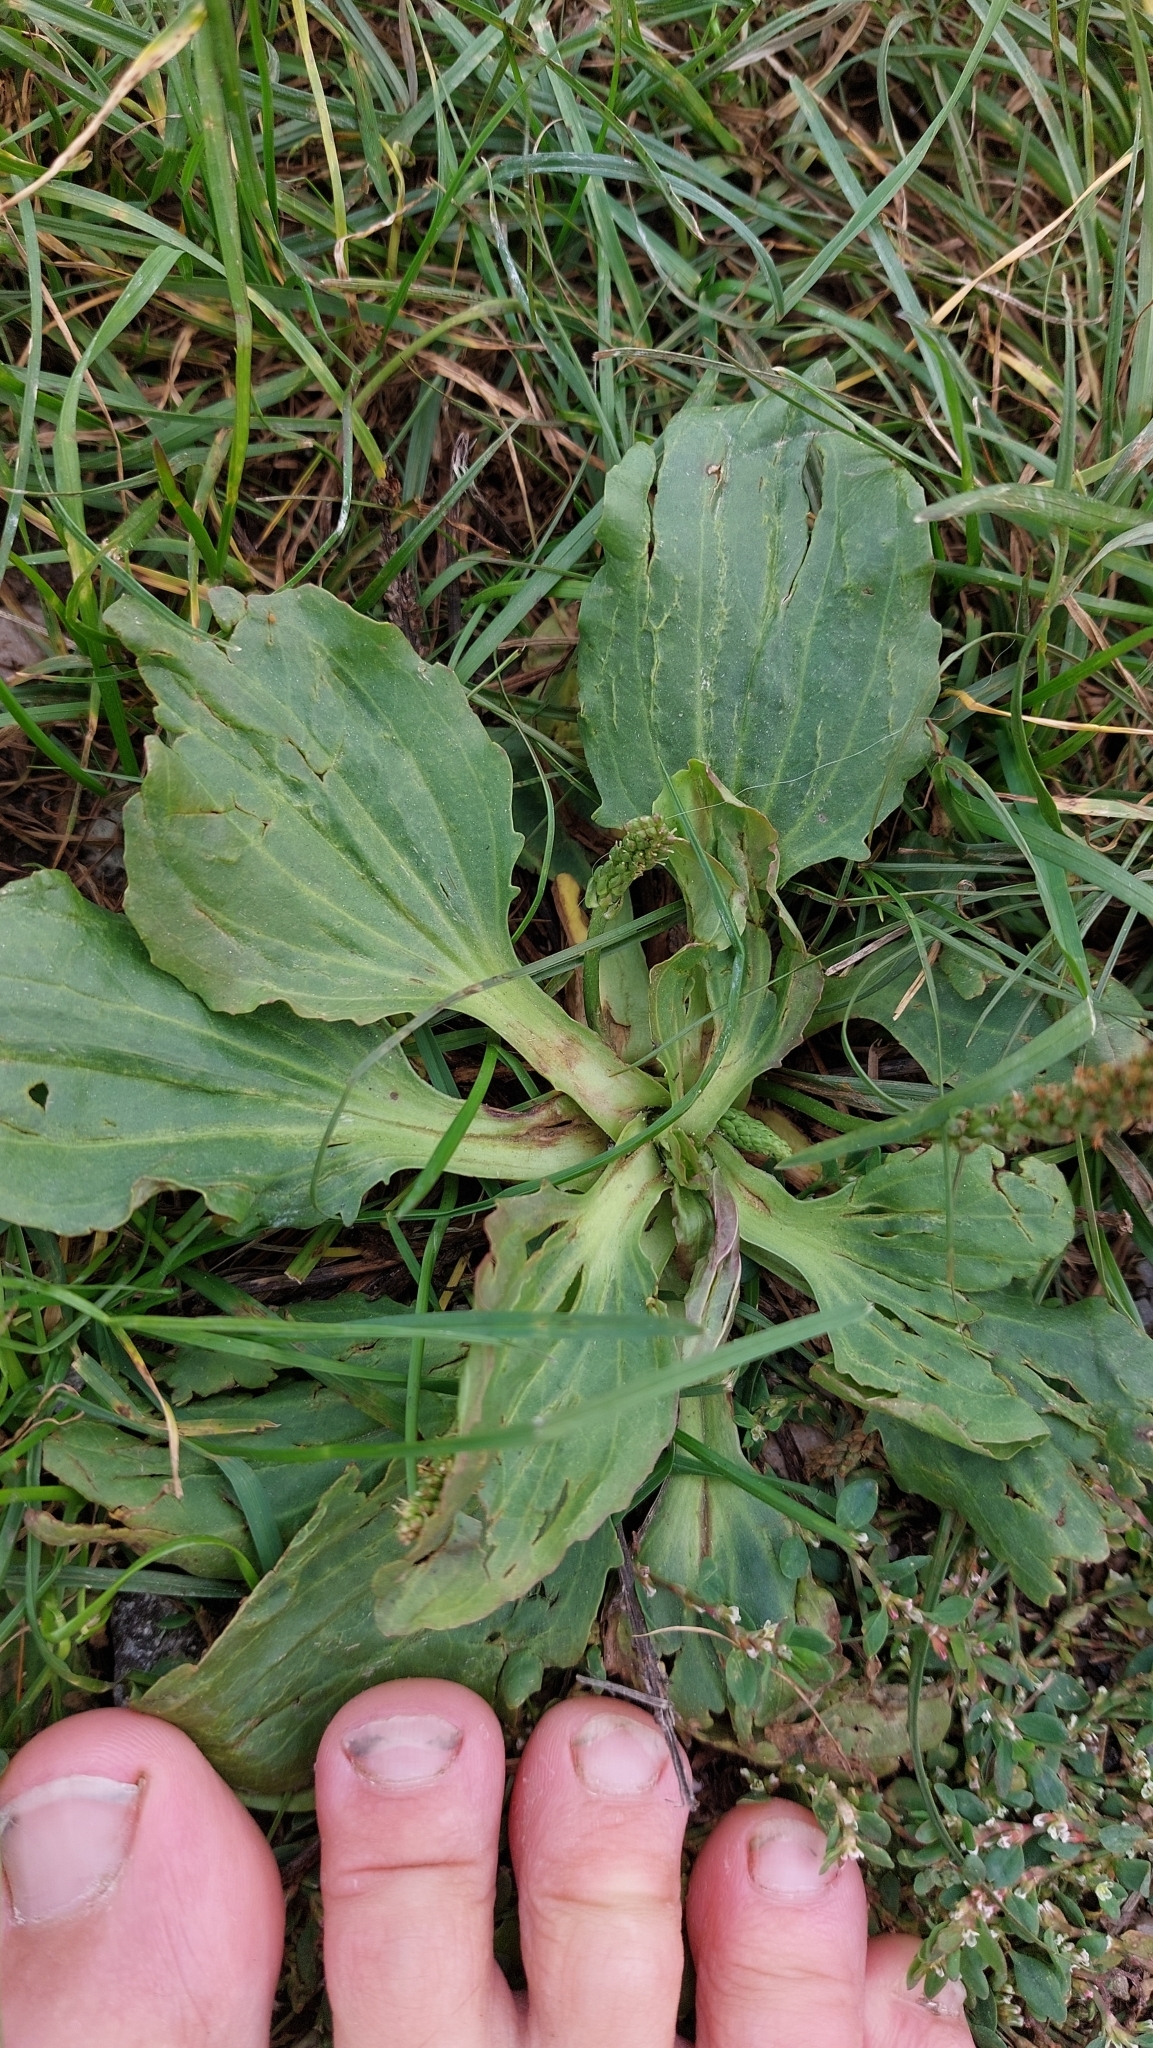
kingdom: Plantae
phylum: Tracheophyta
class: Magnoliopsida
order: Lamiales
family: Plantaginaceae
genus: Plantago
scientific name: Plantago major
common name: Common plantain
